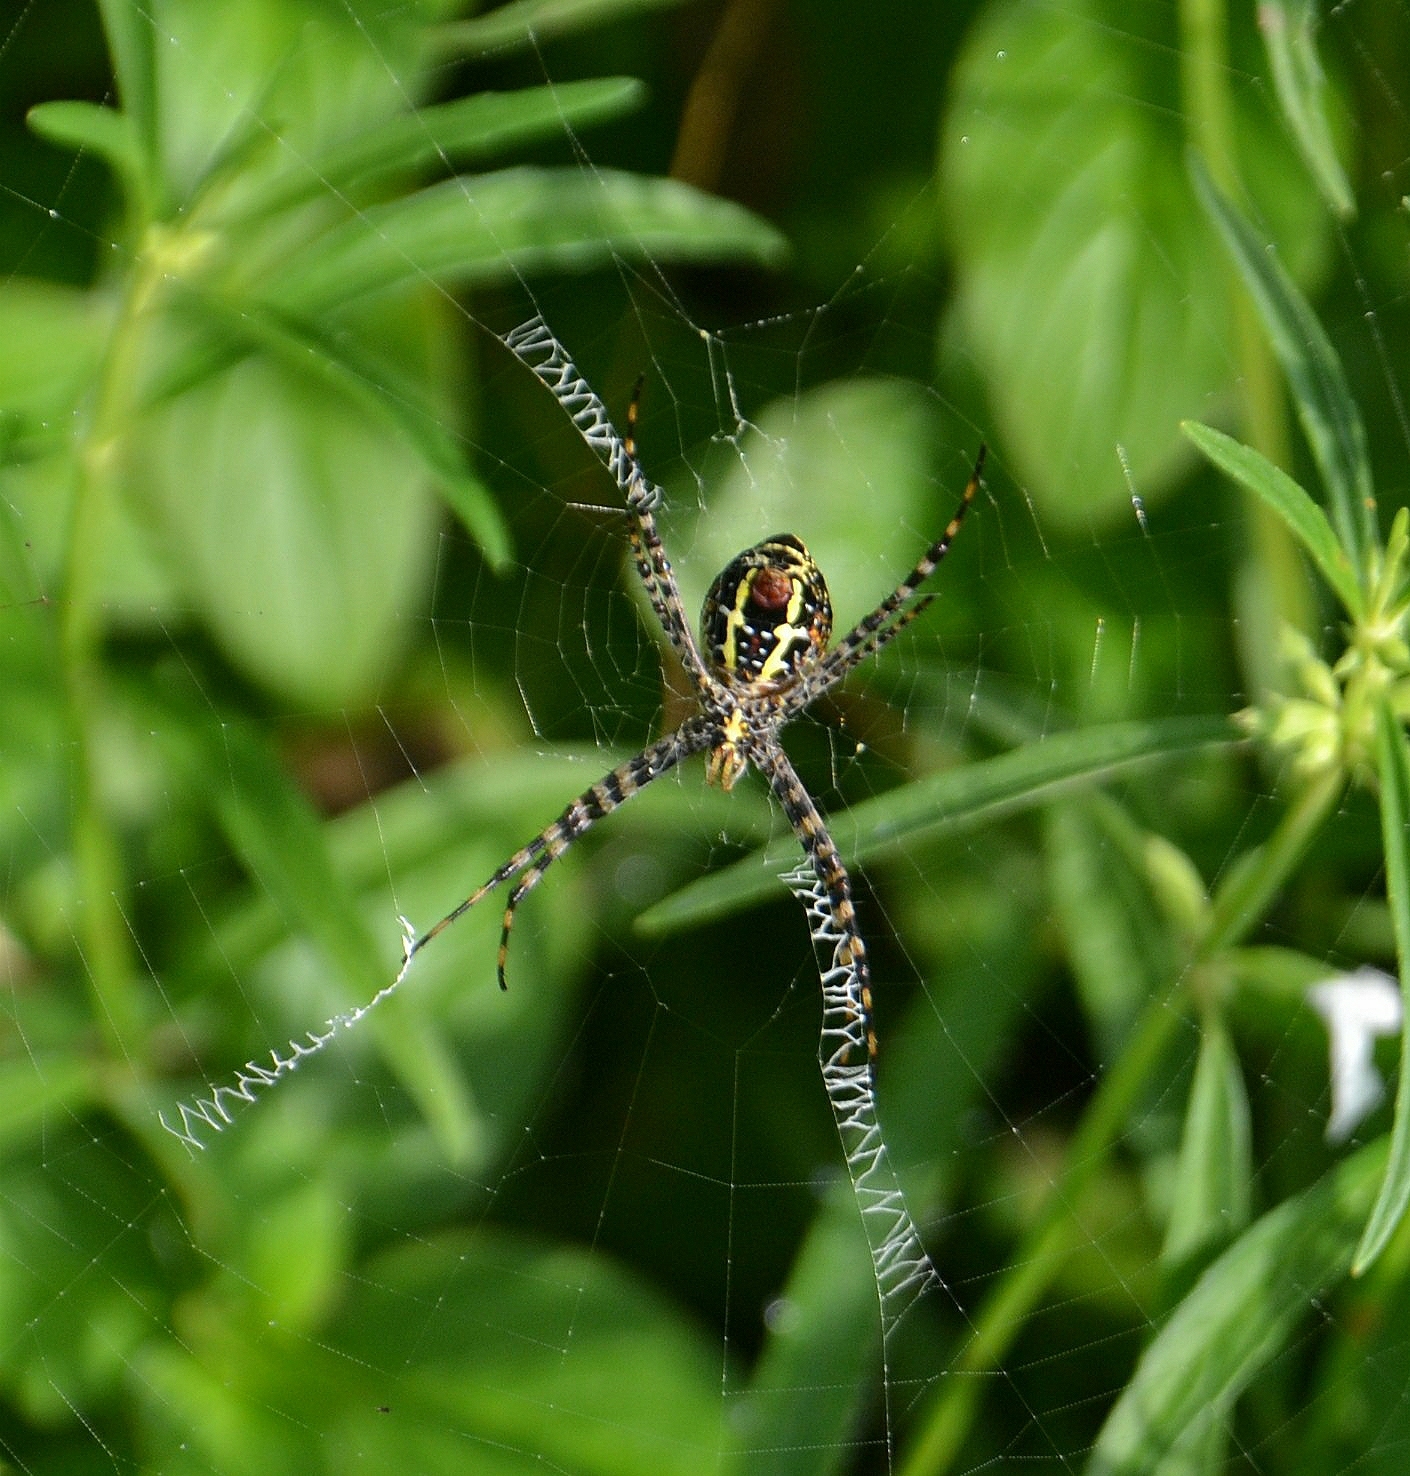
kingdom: Animalia
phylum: Arthropoda
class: Arachnida
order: Araneae
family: Araneidae
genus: Argiope
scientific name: Argiope aemula
